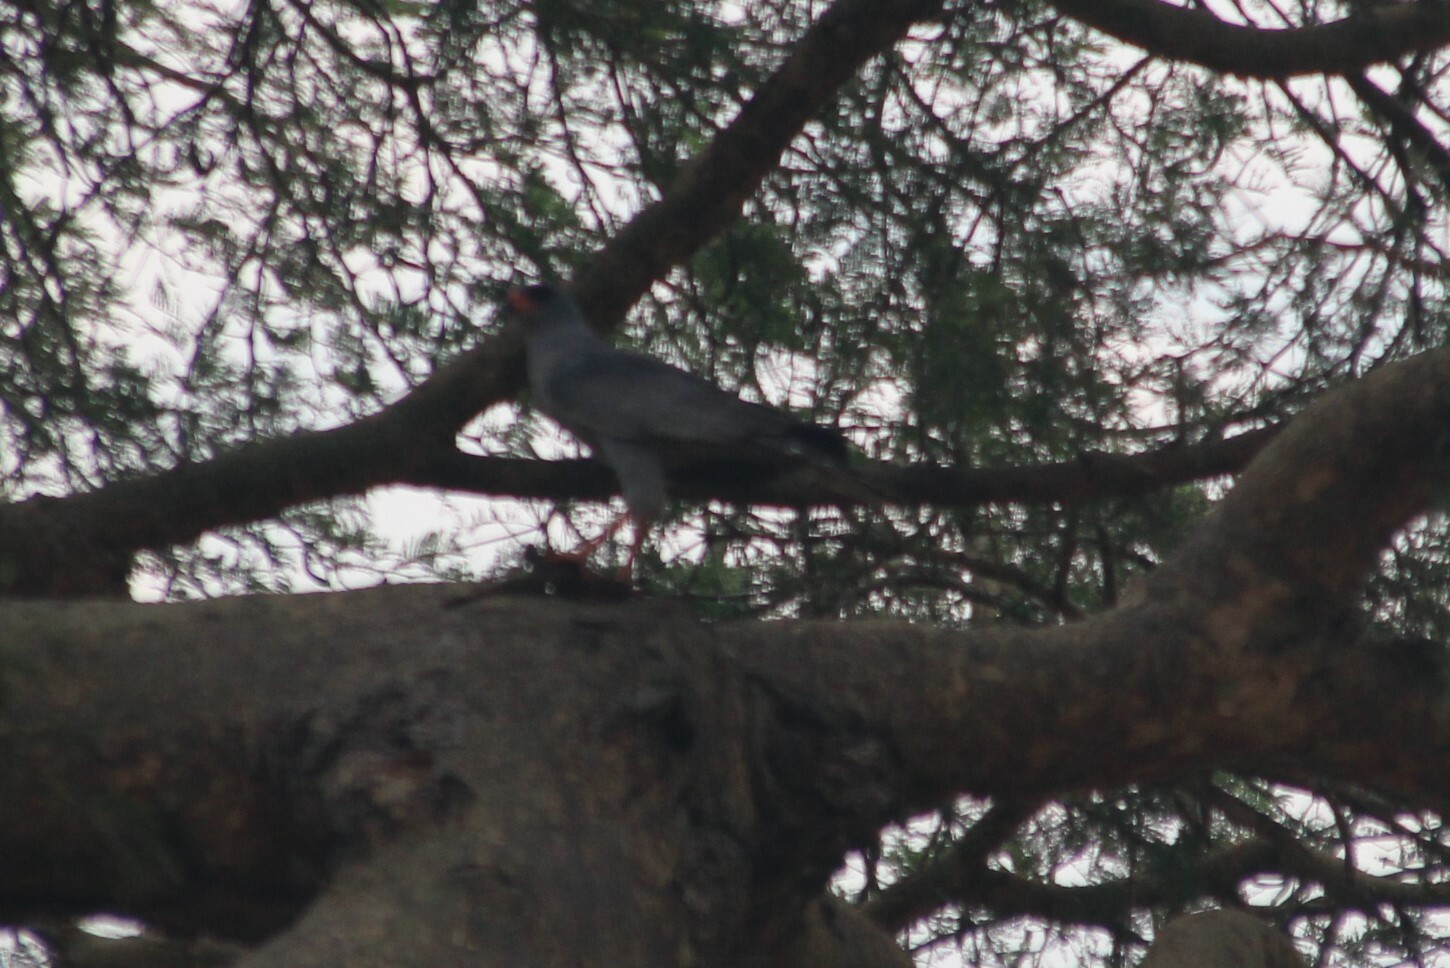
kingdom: Animalia
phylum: Chordata
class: Aves
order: Accipitriformes
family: Accipitridae
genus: Melierax
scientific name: Melierax metabates
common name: Dark chanting-goshawk
